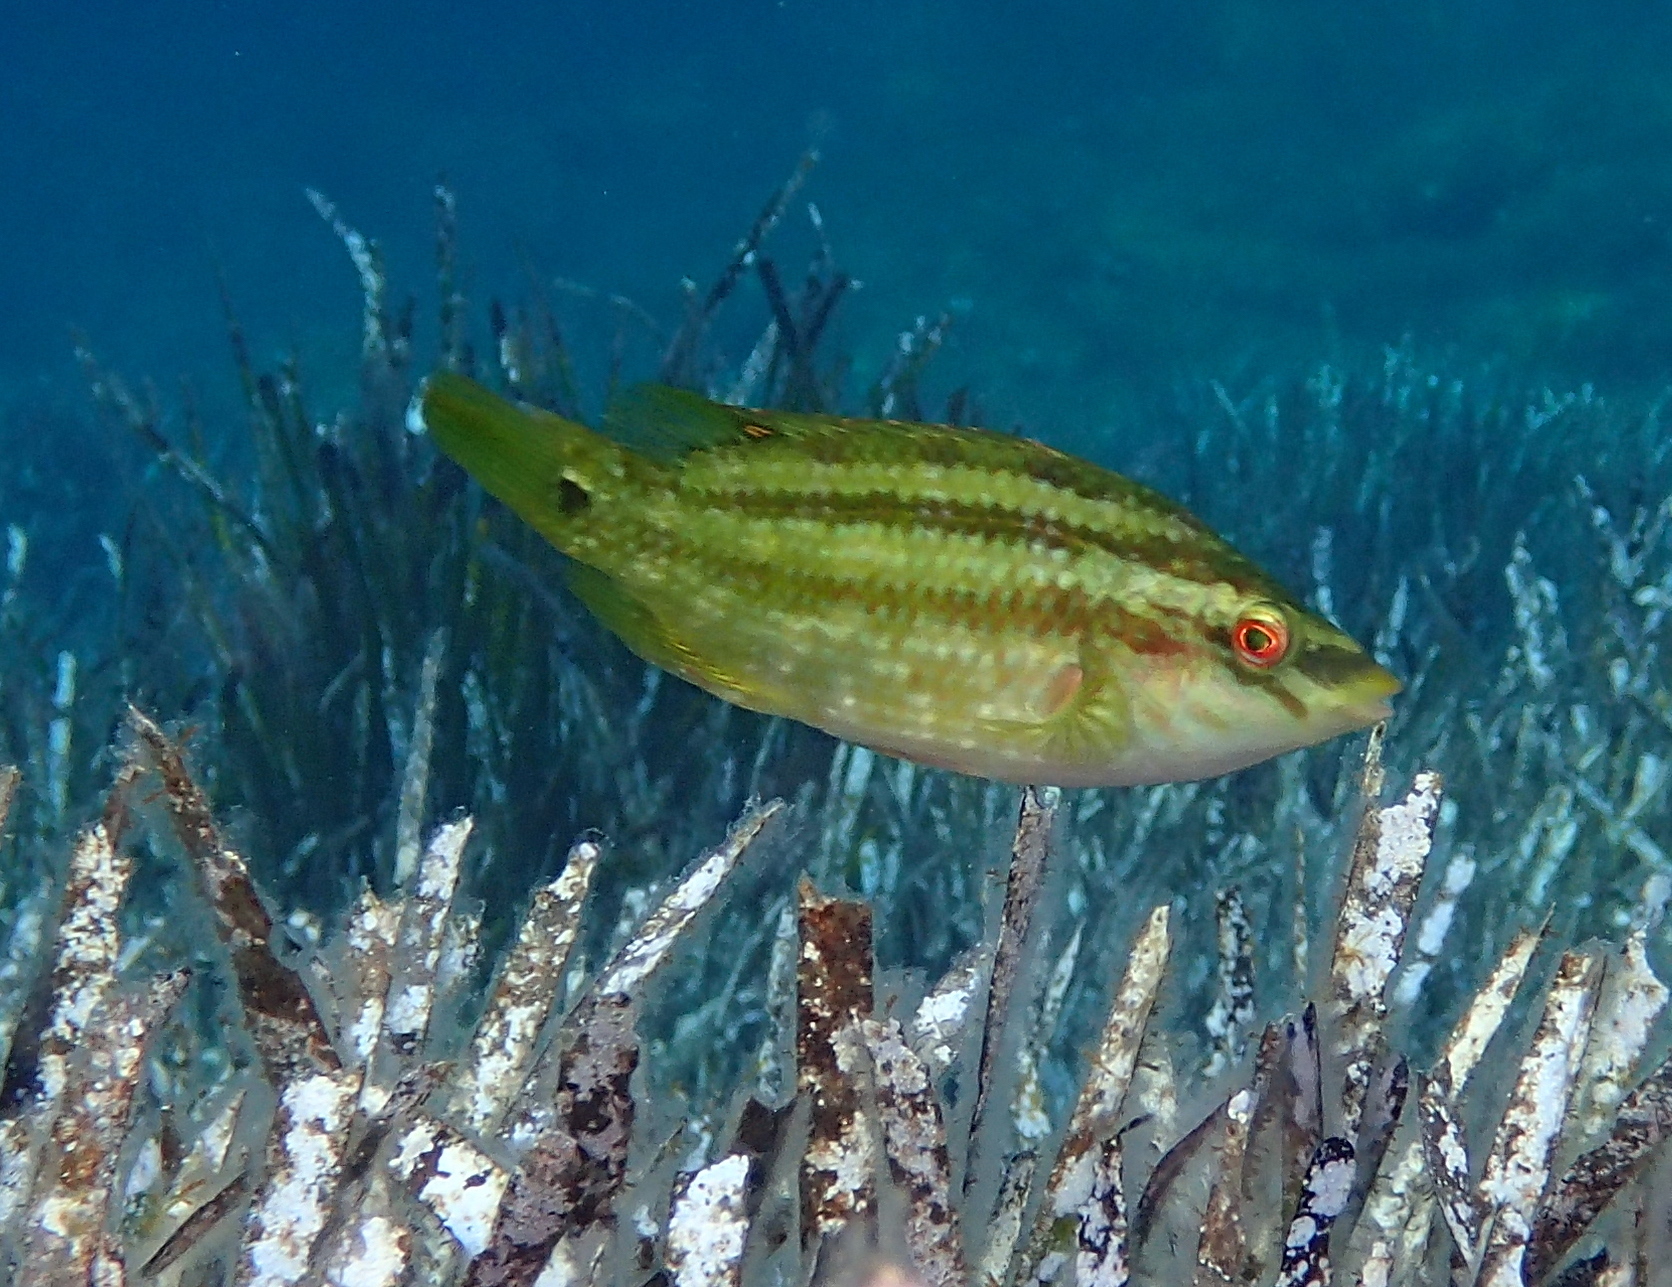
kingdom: Animalia
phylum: Chordata
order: Perciformes
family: Labridae
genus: Symphodus
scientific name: Symphodus roissali
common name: Five-spotted wrasse
